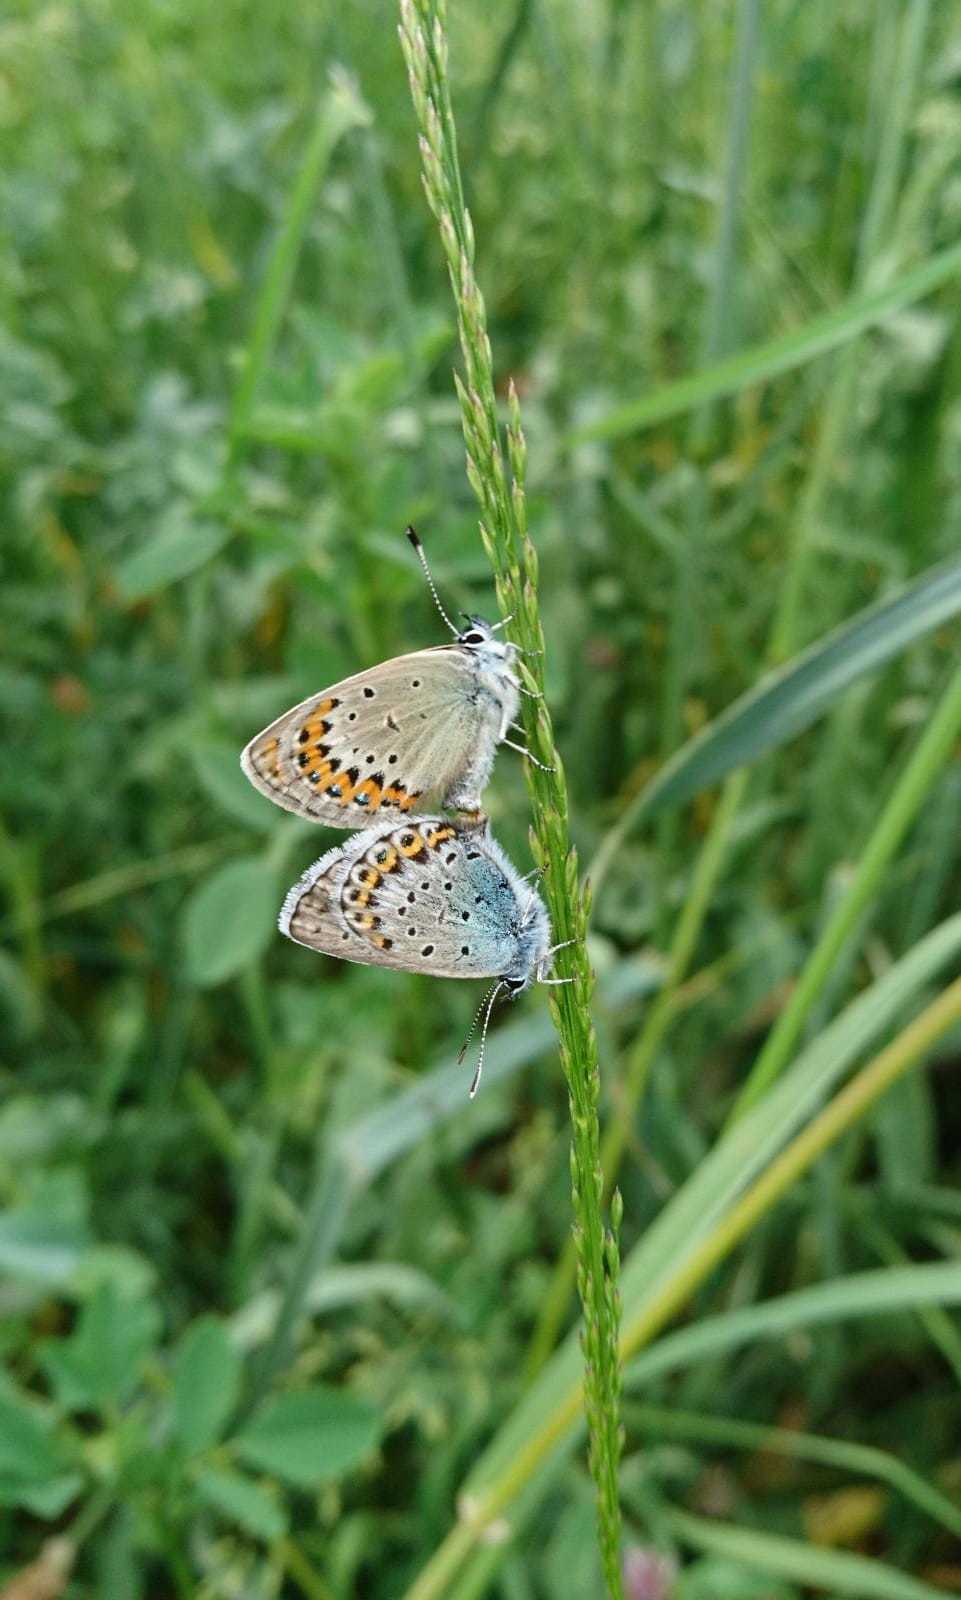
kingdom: Animalia
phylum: Arthropoda
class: Insecta
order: Lepidoptera
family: Lycaenidae
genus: Lycaeides
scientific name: Lycaeides idas
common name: Northern blue
